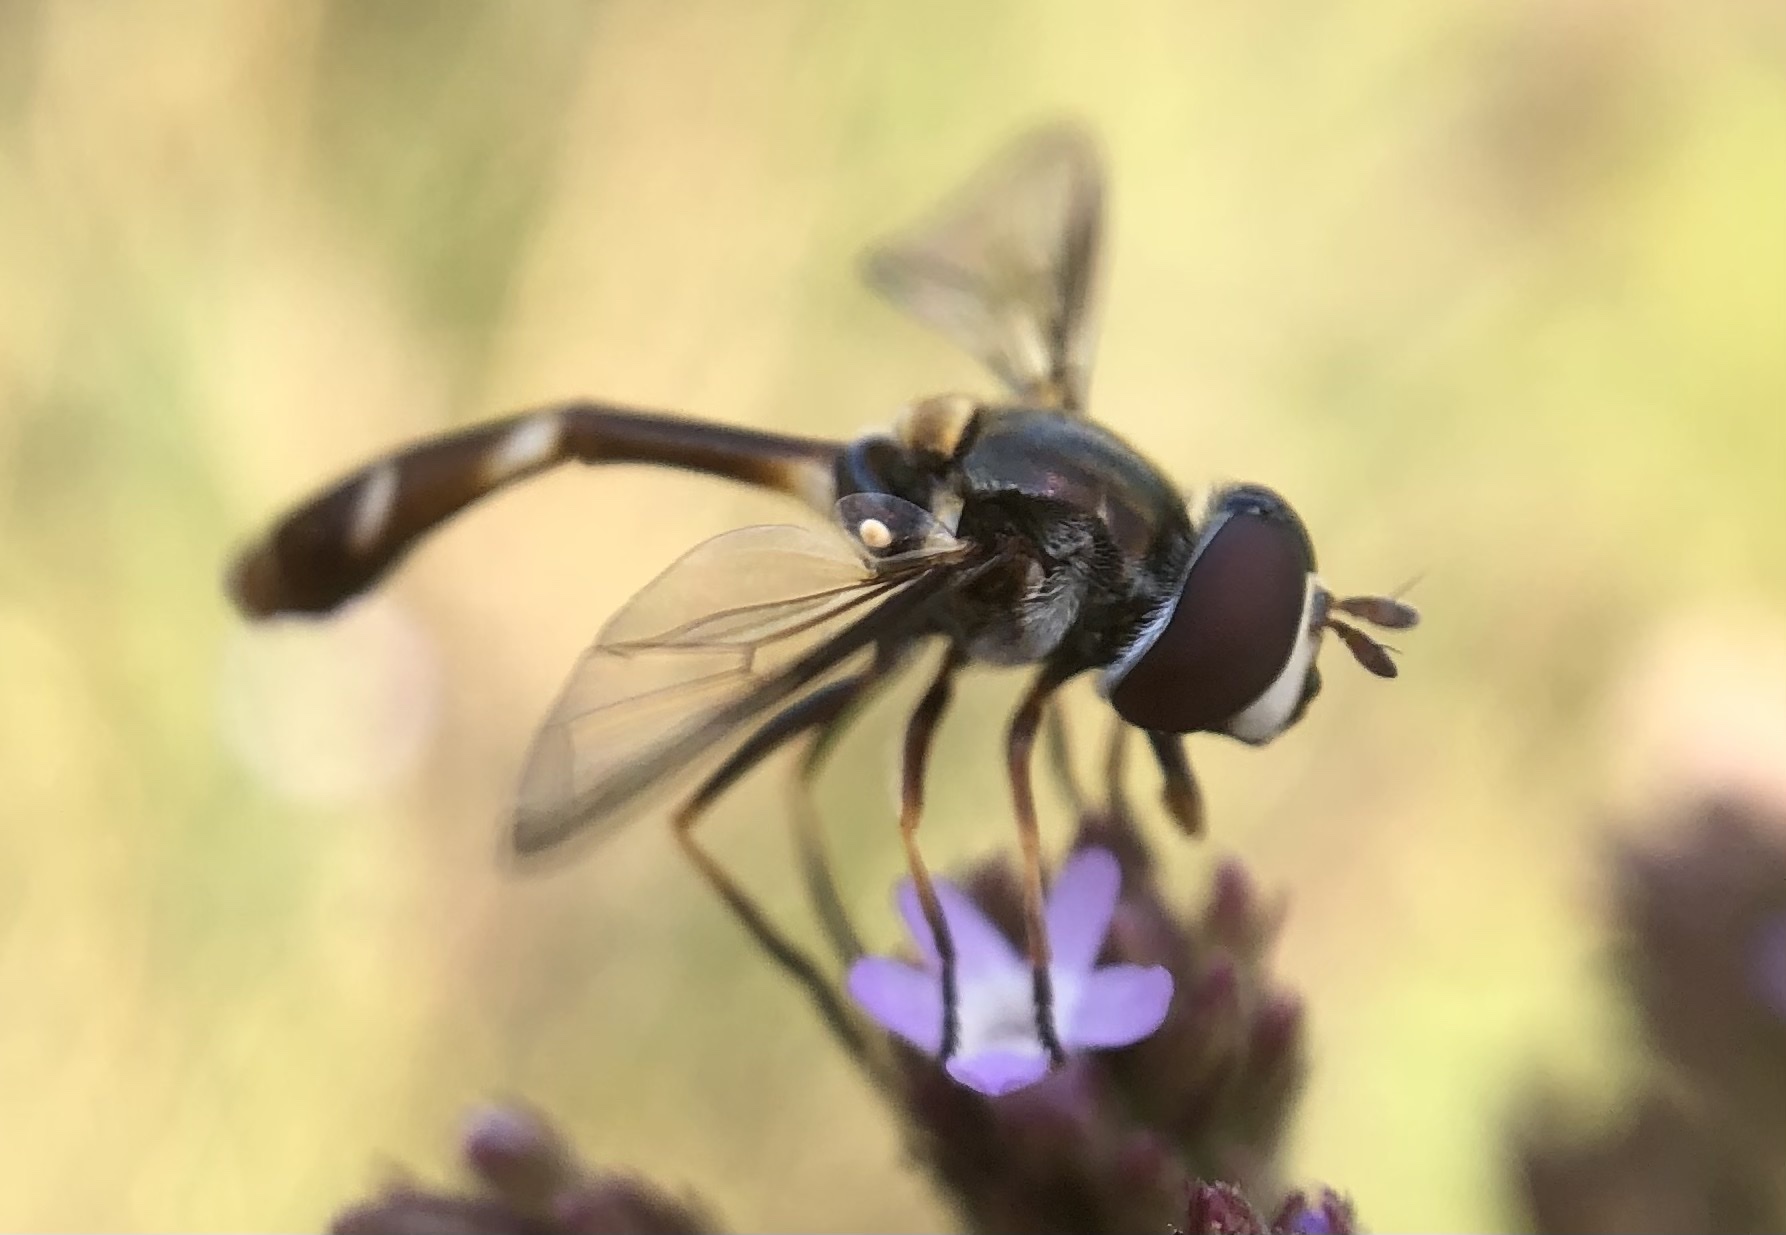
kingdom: Animalia
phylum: Arthropoda
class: Insecta
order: Diptera
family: Syrphidae
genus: Dioprosopa
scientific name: Dioprosopa clavatus
